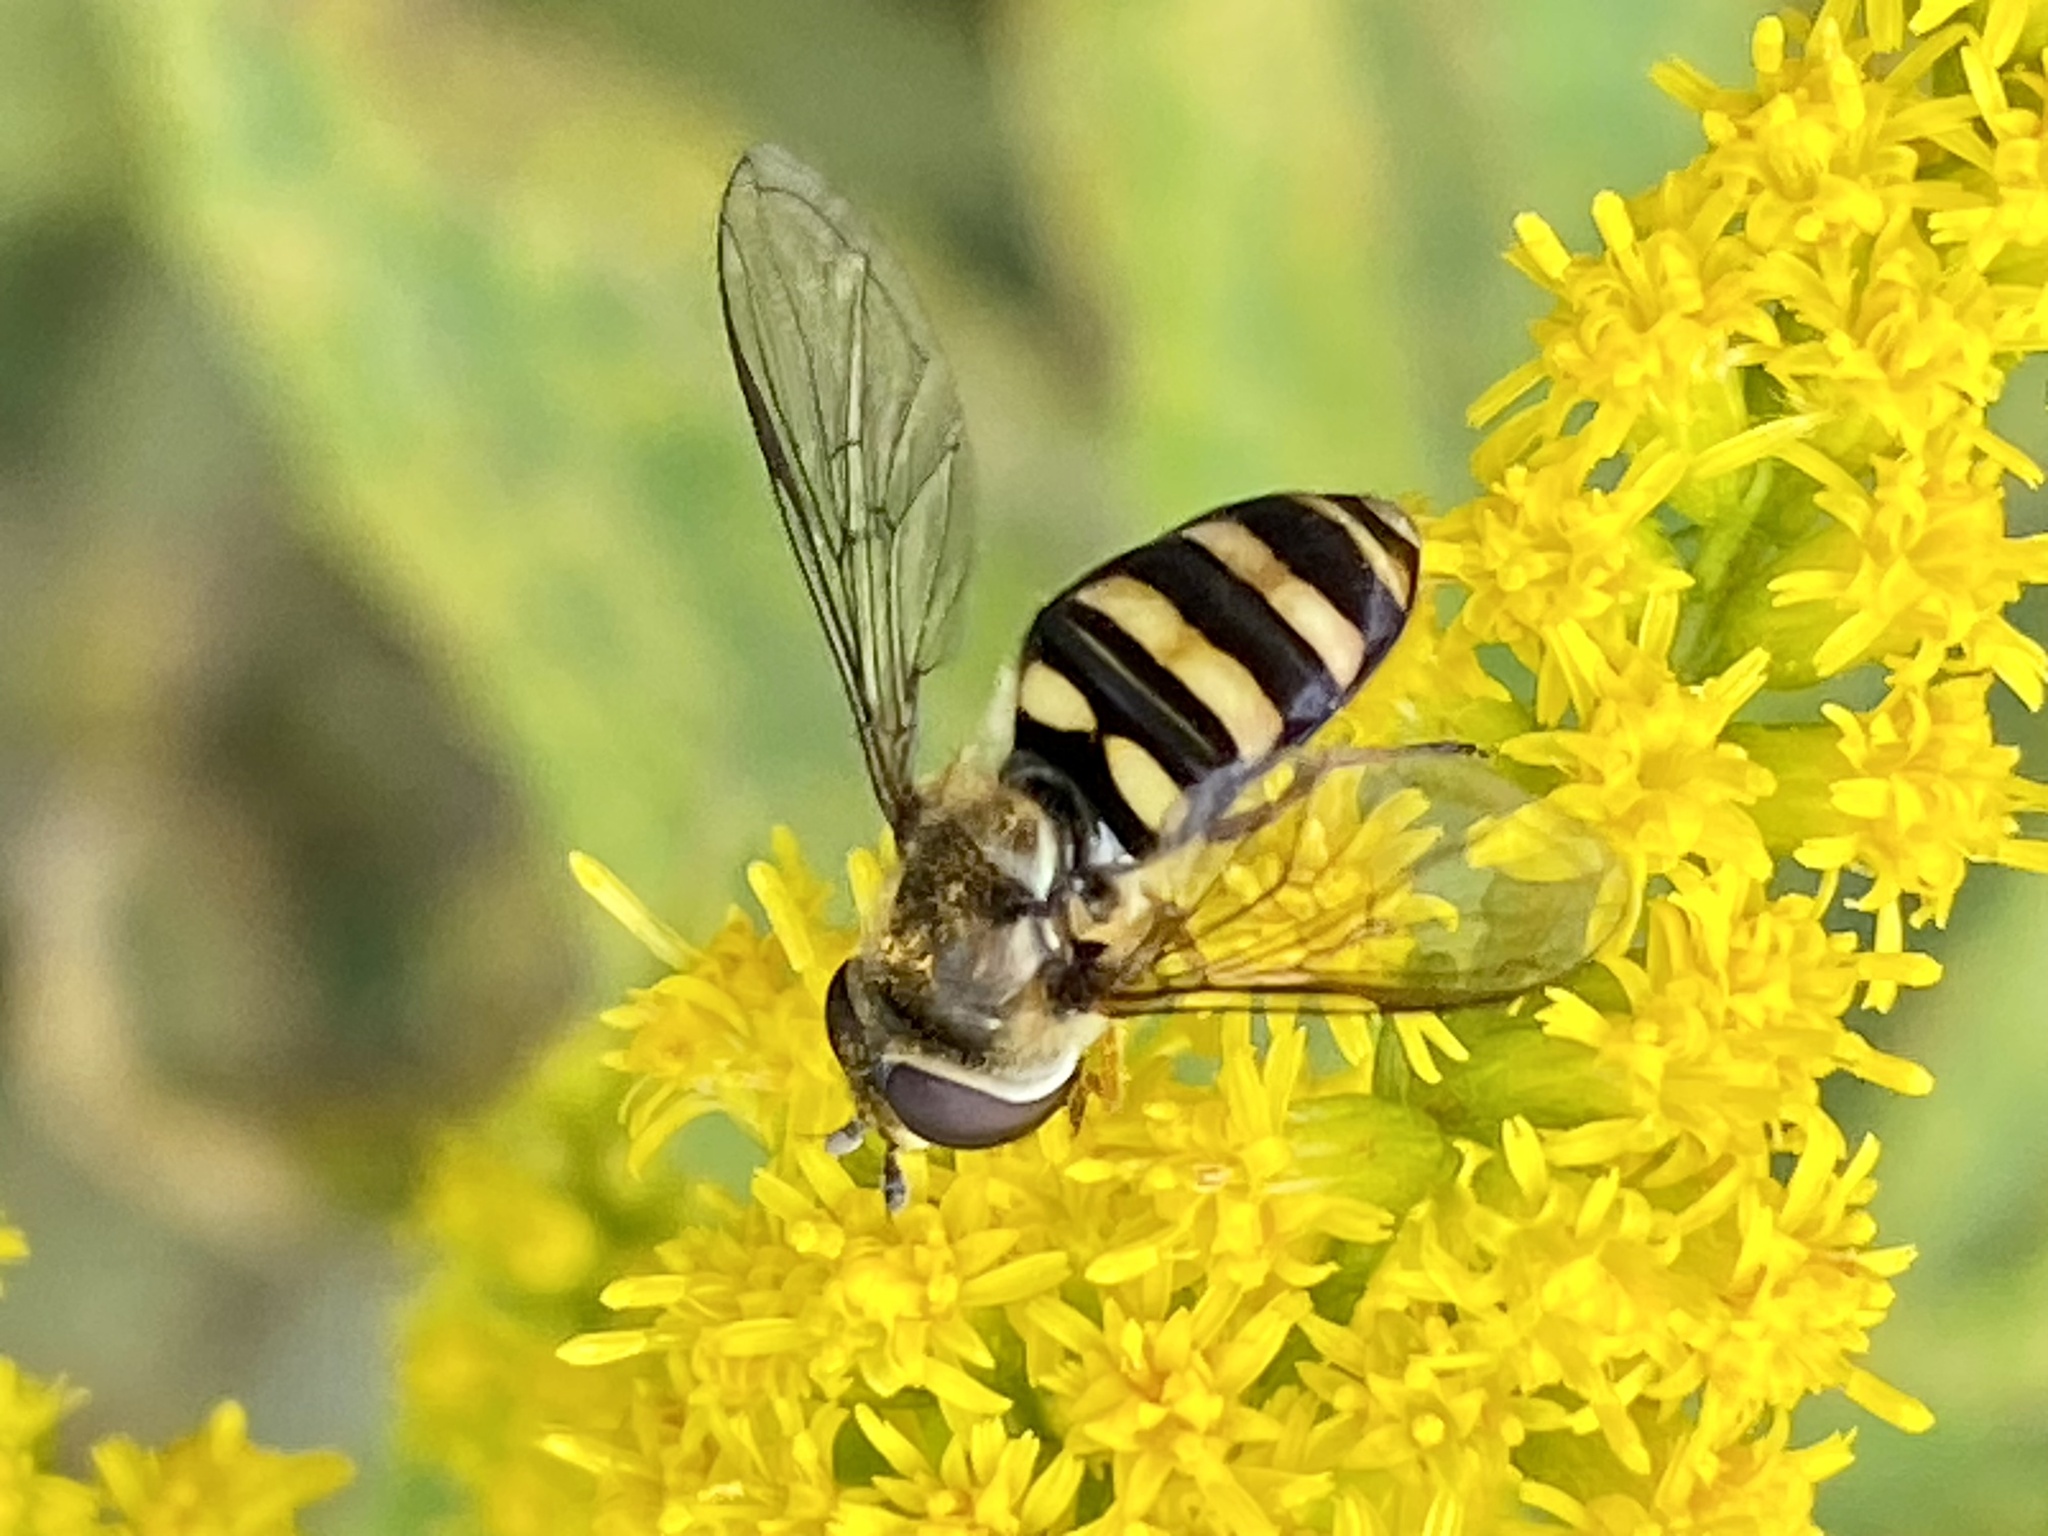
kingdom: Animalia
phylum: Arthropoda
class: Insecta
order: Diptera
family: Syrphidae
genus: Eupeodes
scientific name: Eupeodes
